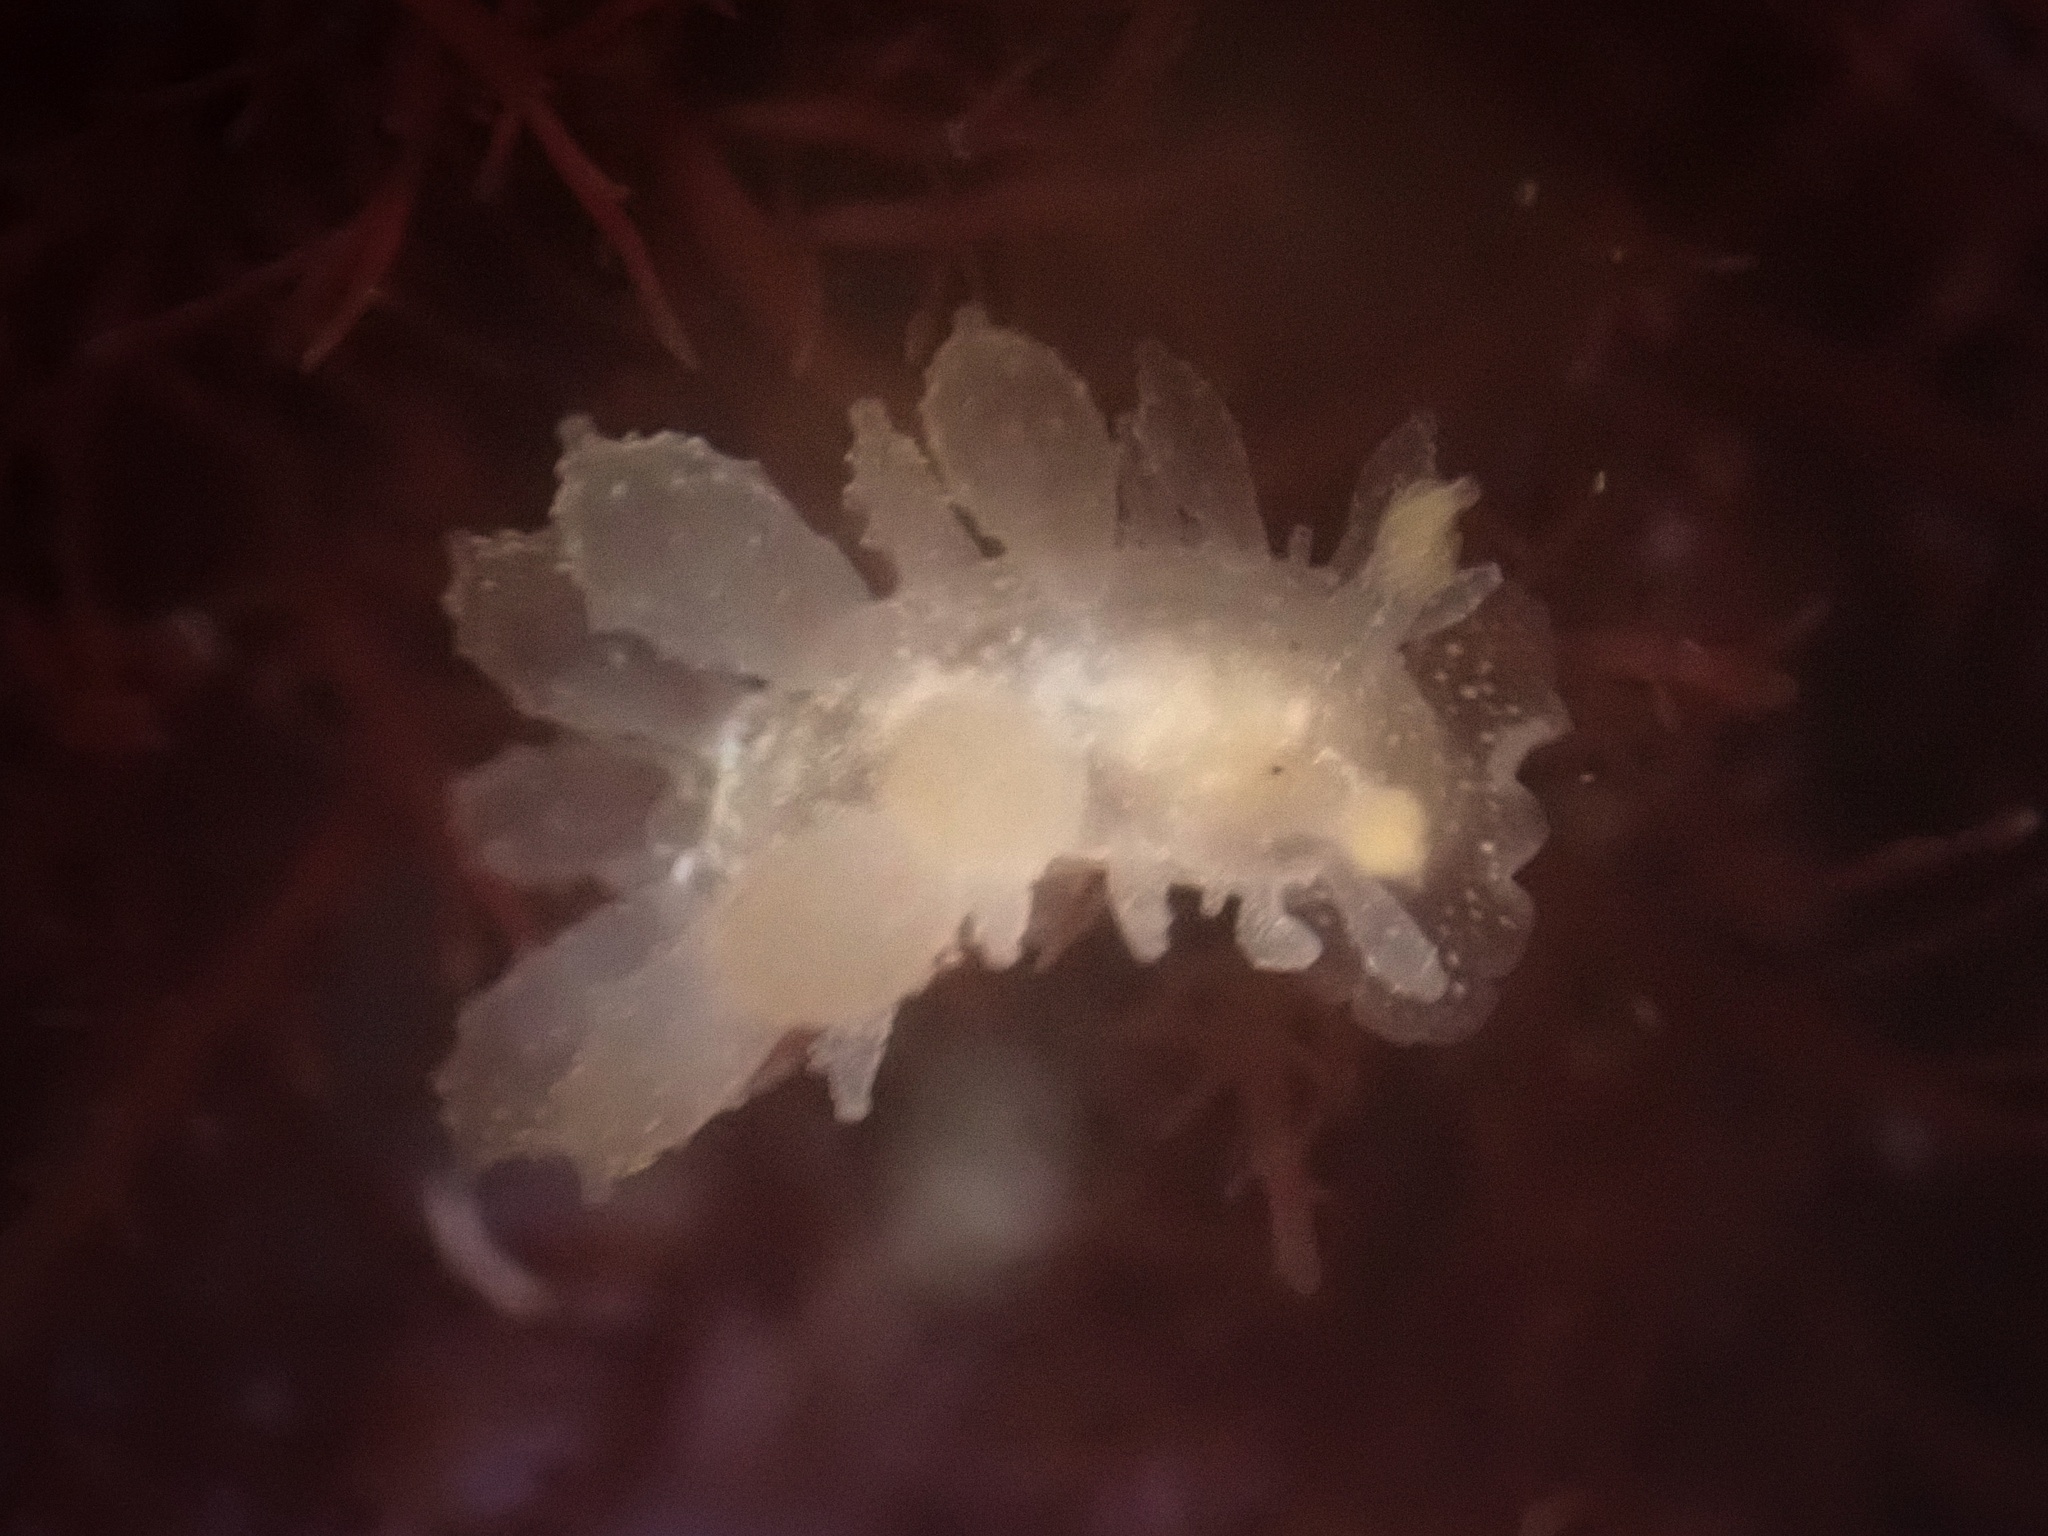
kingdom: Animalia
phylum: Mollusca
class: Gastropoda
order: Nudibranchia
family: Dironidae
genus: Dirona
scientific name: Dirona picta
